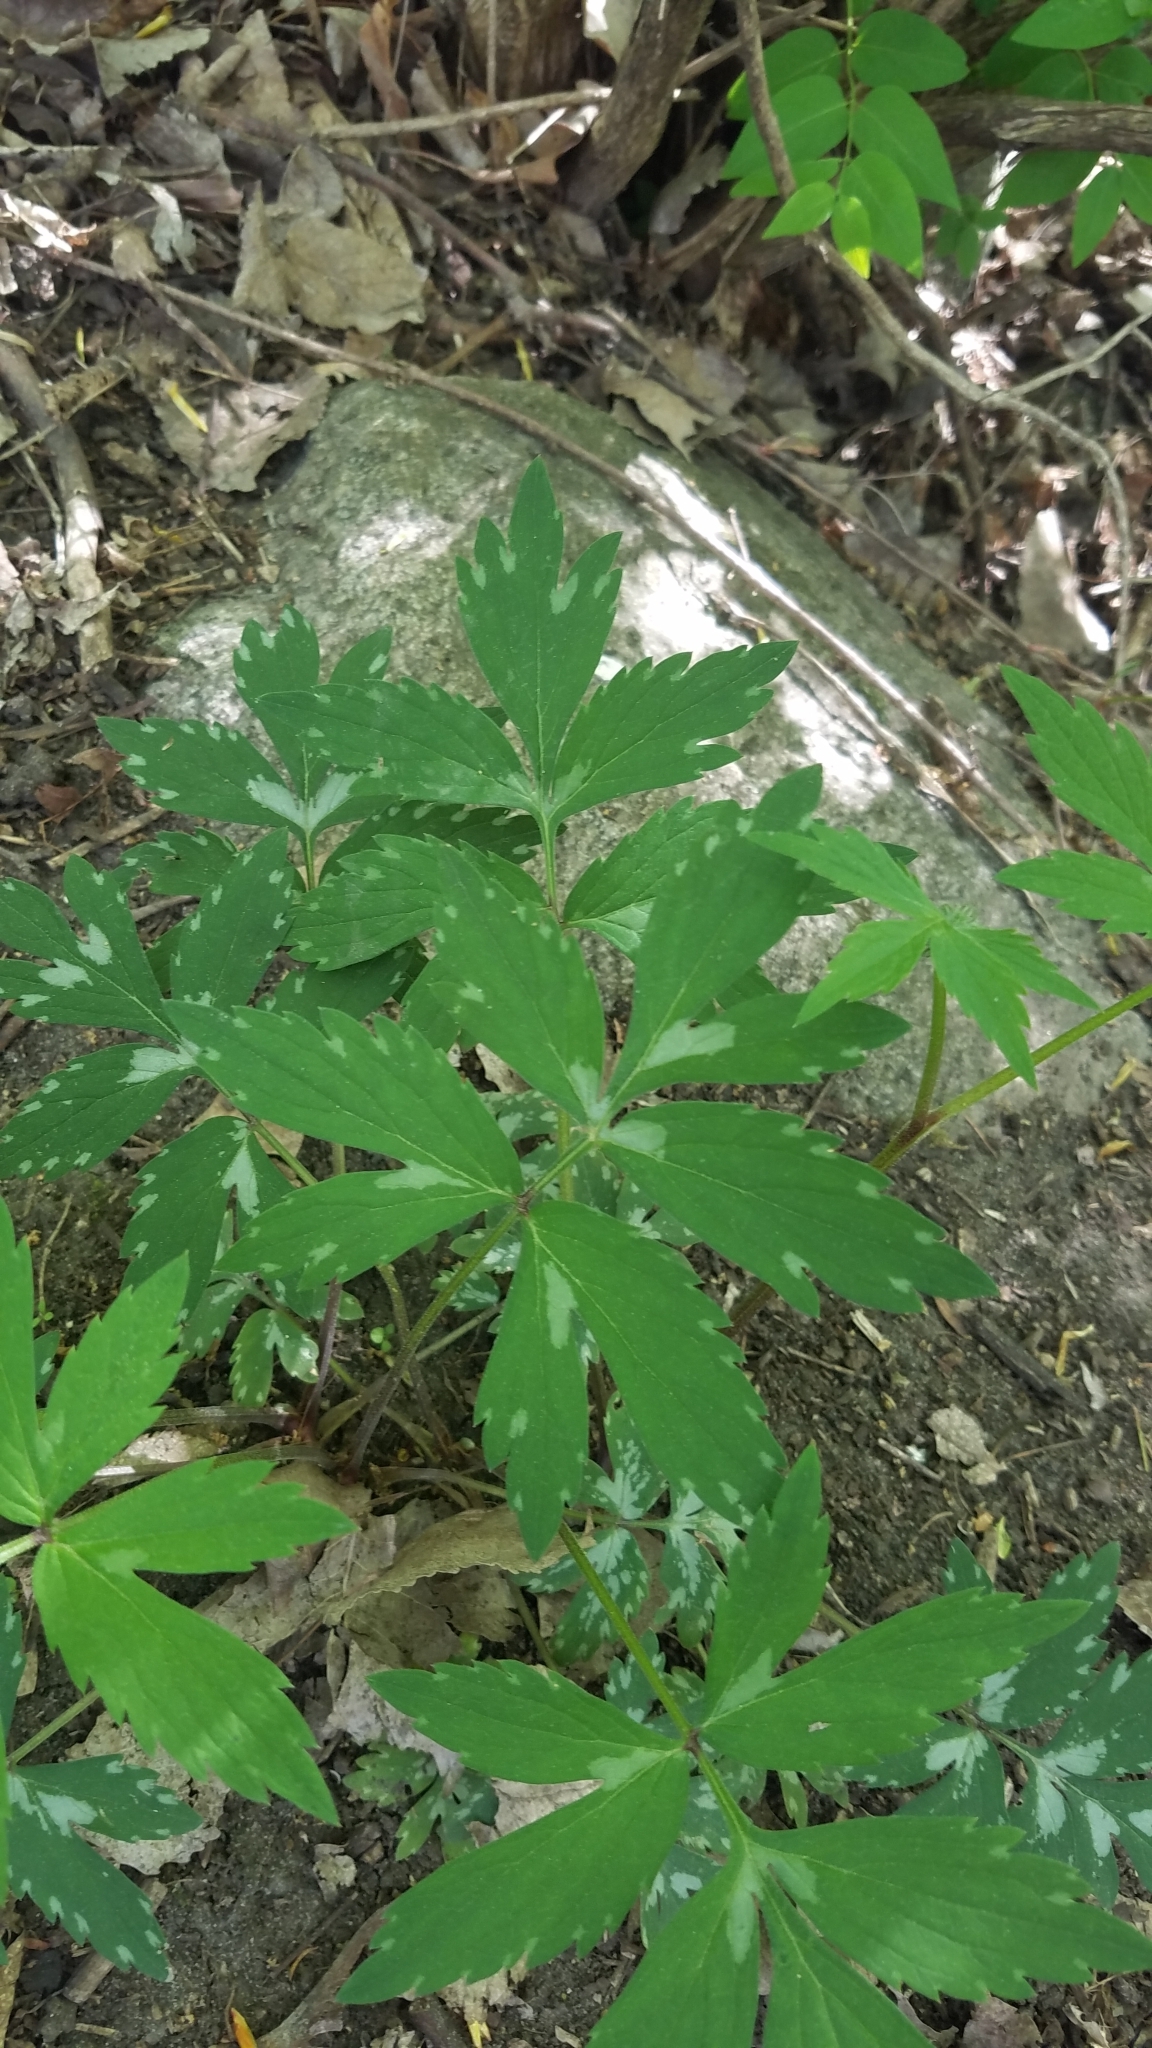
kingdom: Plantae
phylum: Tracheophyta
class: Magnoliopsida
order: Boraginales
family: Hydrophyllaceae
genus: Hydrophyllum
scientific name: Hydrophyllum virginianum
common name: Virginia waterleaf
